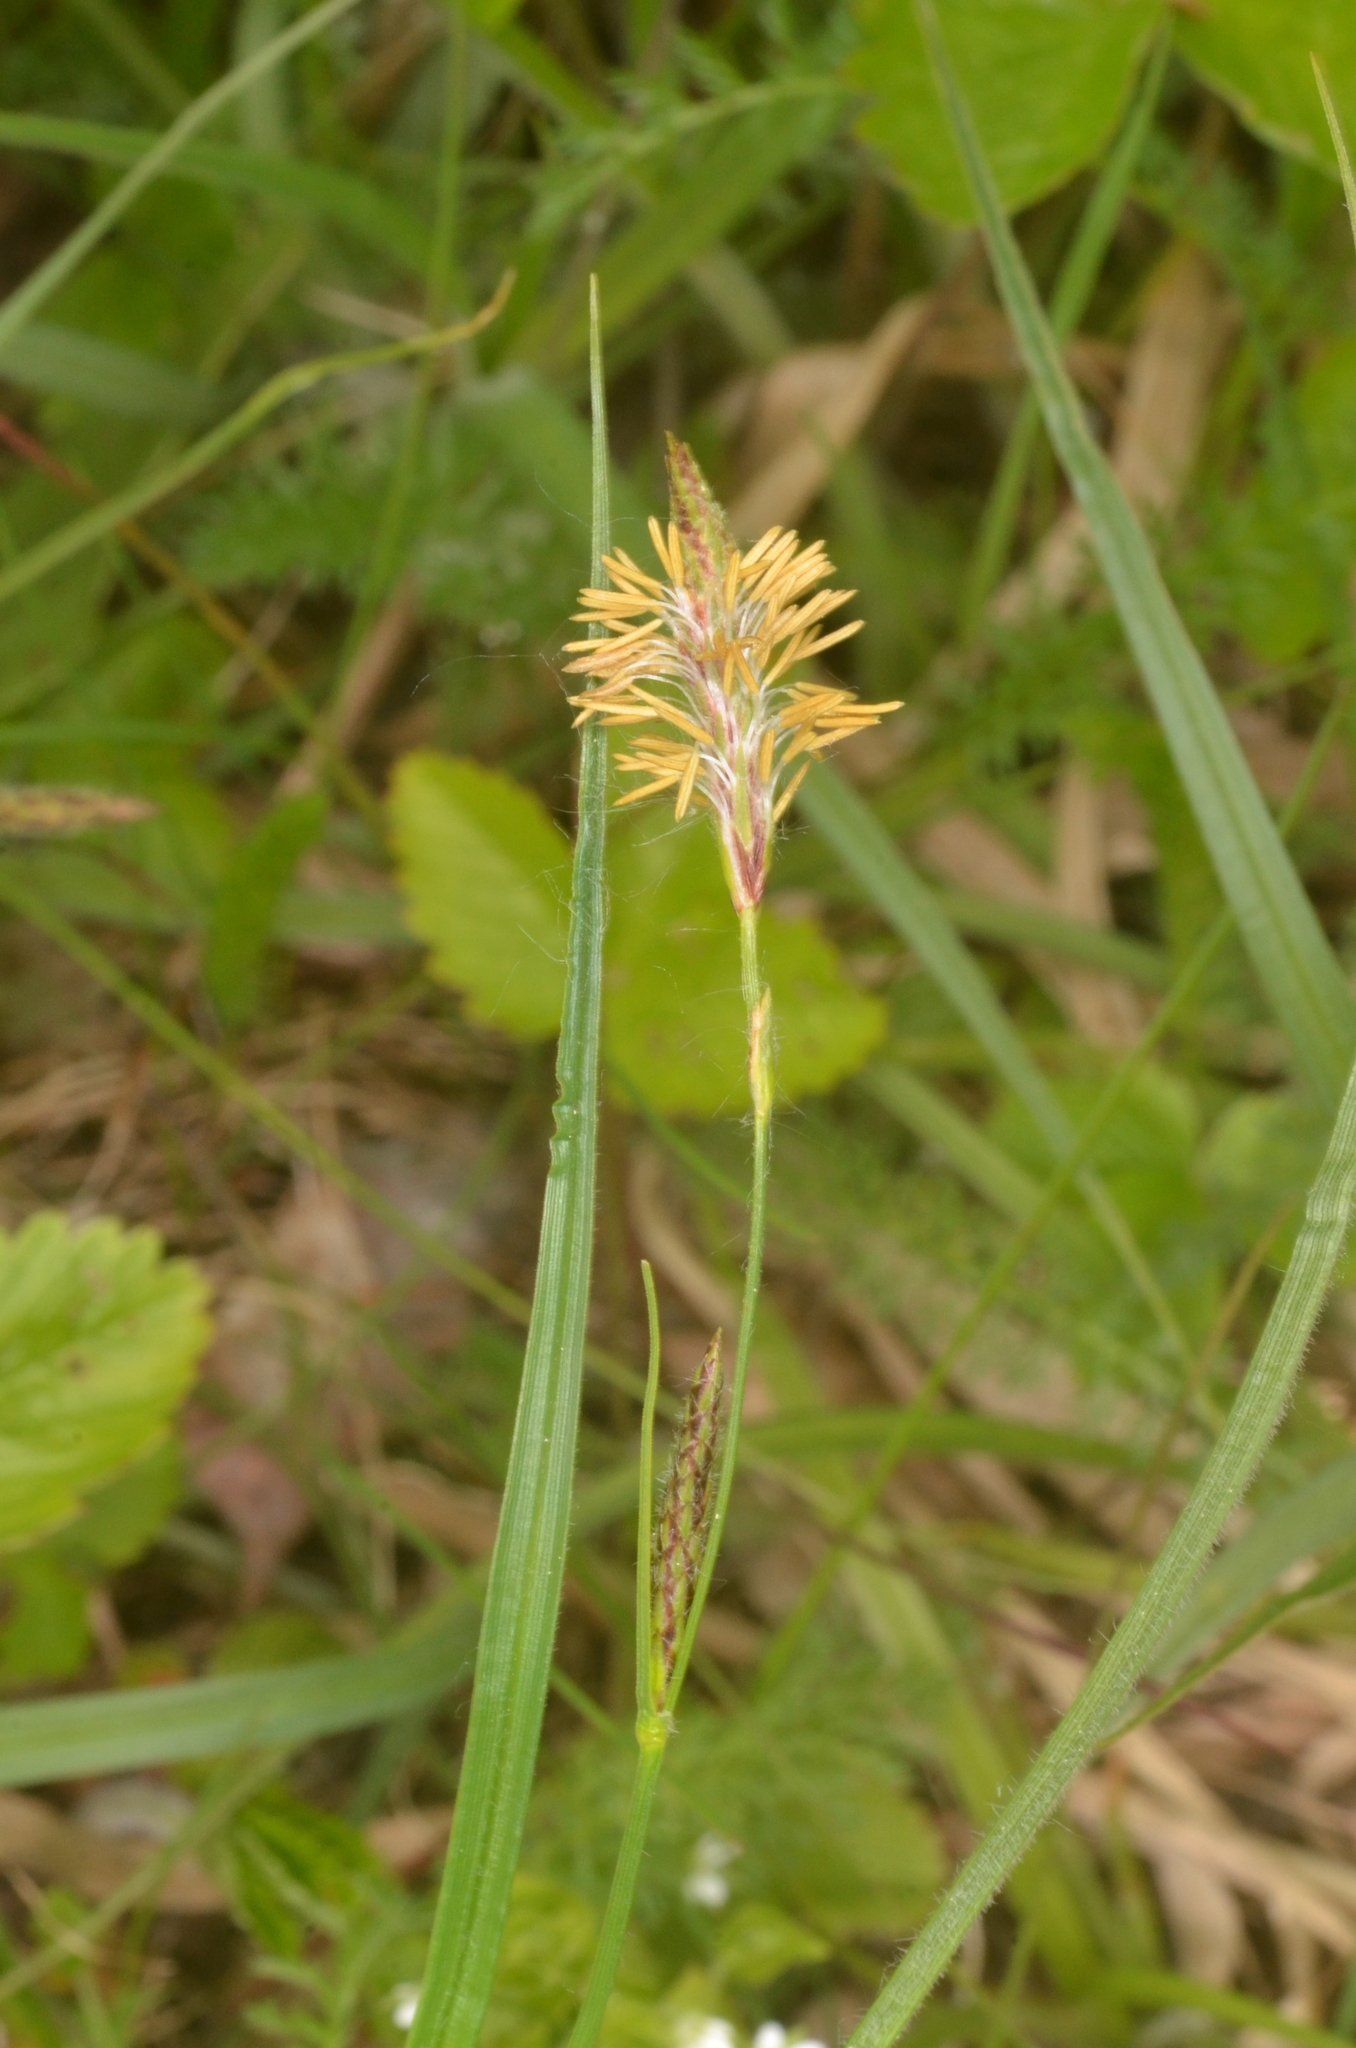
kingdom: Plantae
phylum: Tracheophyta
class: Liliopsida
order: Poales
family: Cyperaceae
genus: Carex
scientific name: Carex hirta
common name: Hairy sedge
